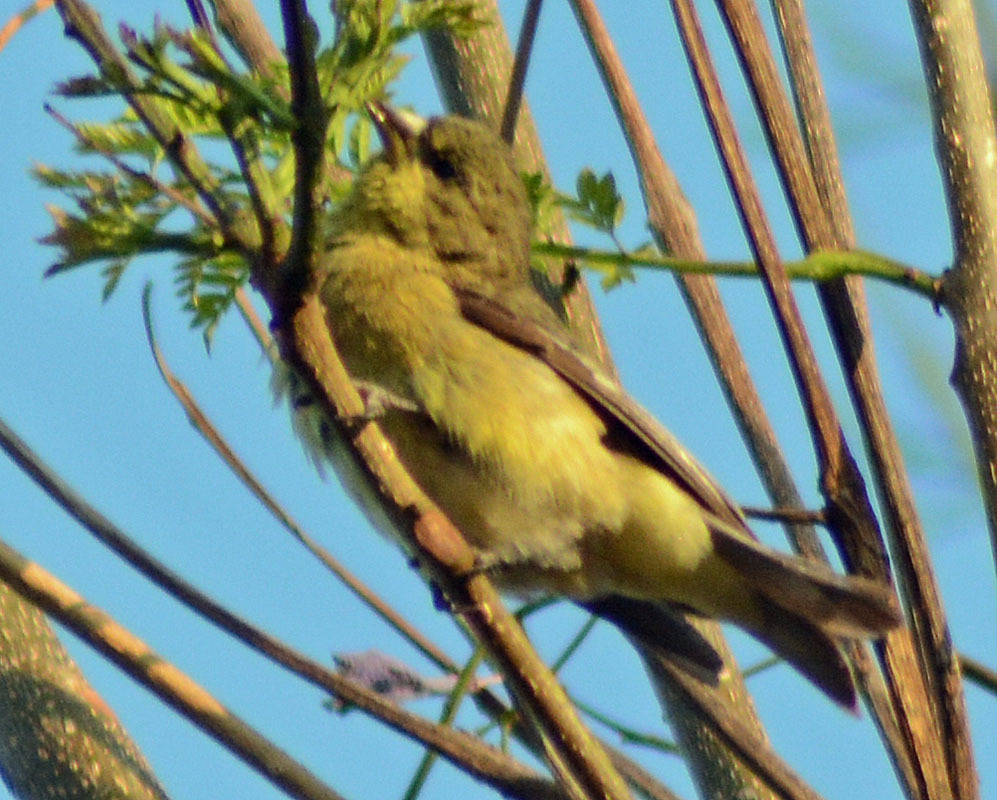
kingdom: Animalia
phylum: Chordata
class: Aves
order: Passeriformes
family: Fringillidae
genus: Spinus
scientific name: Spinus psaltria
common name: Lesser goldfinch
